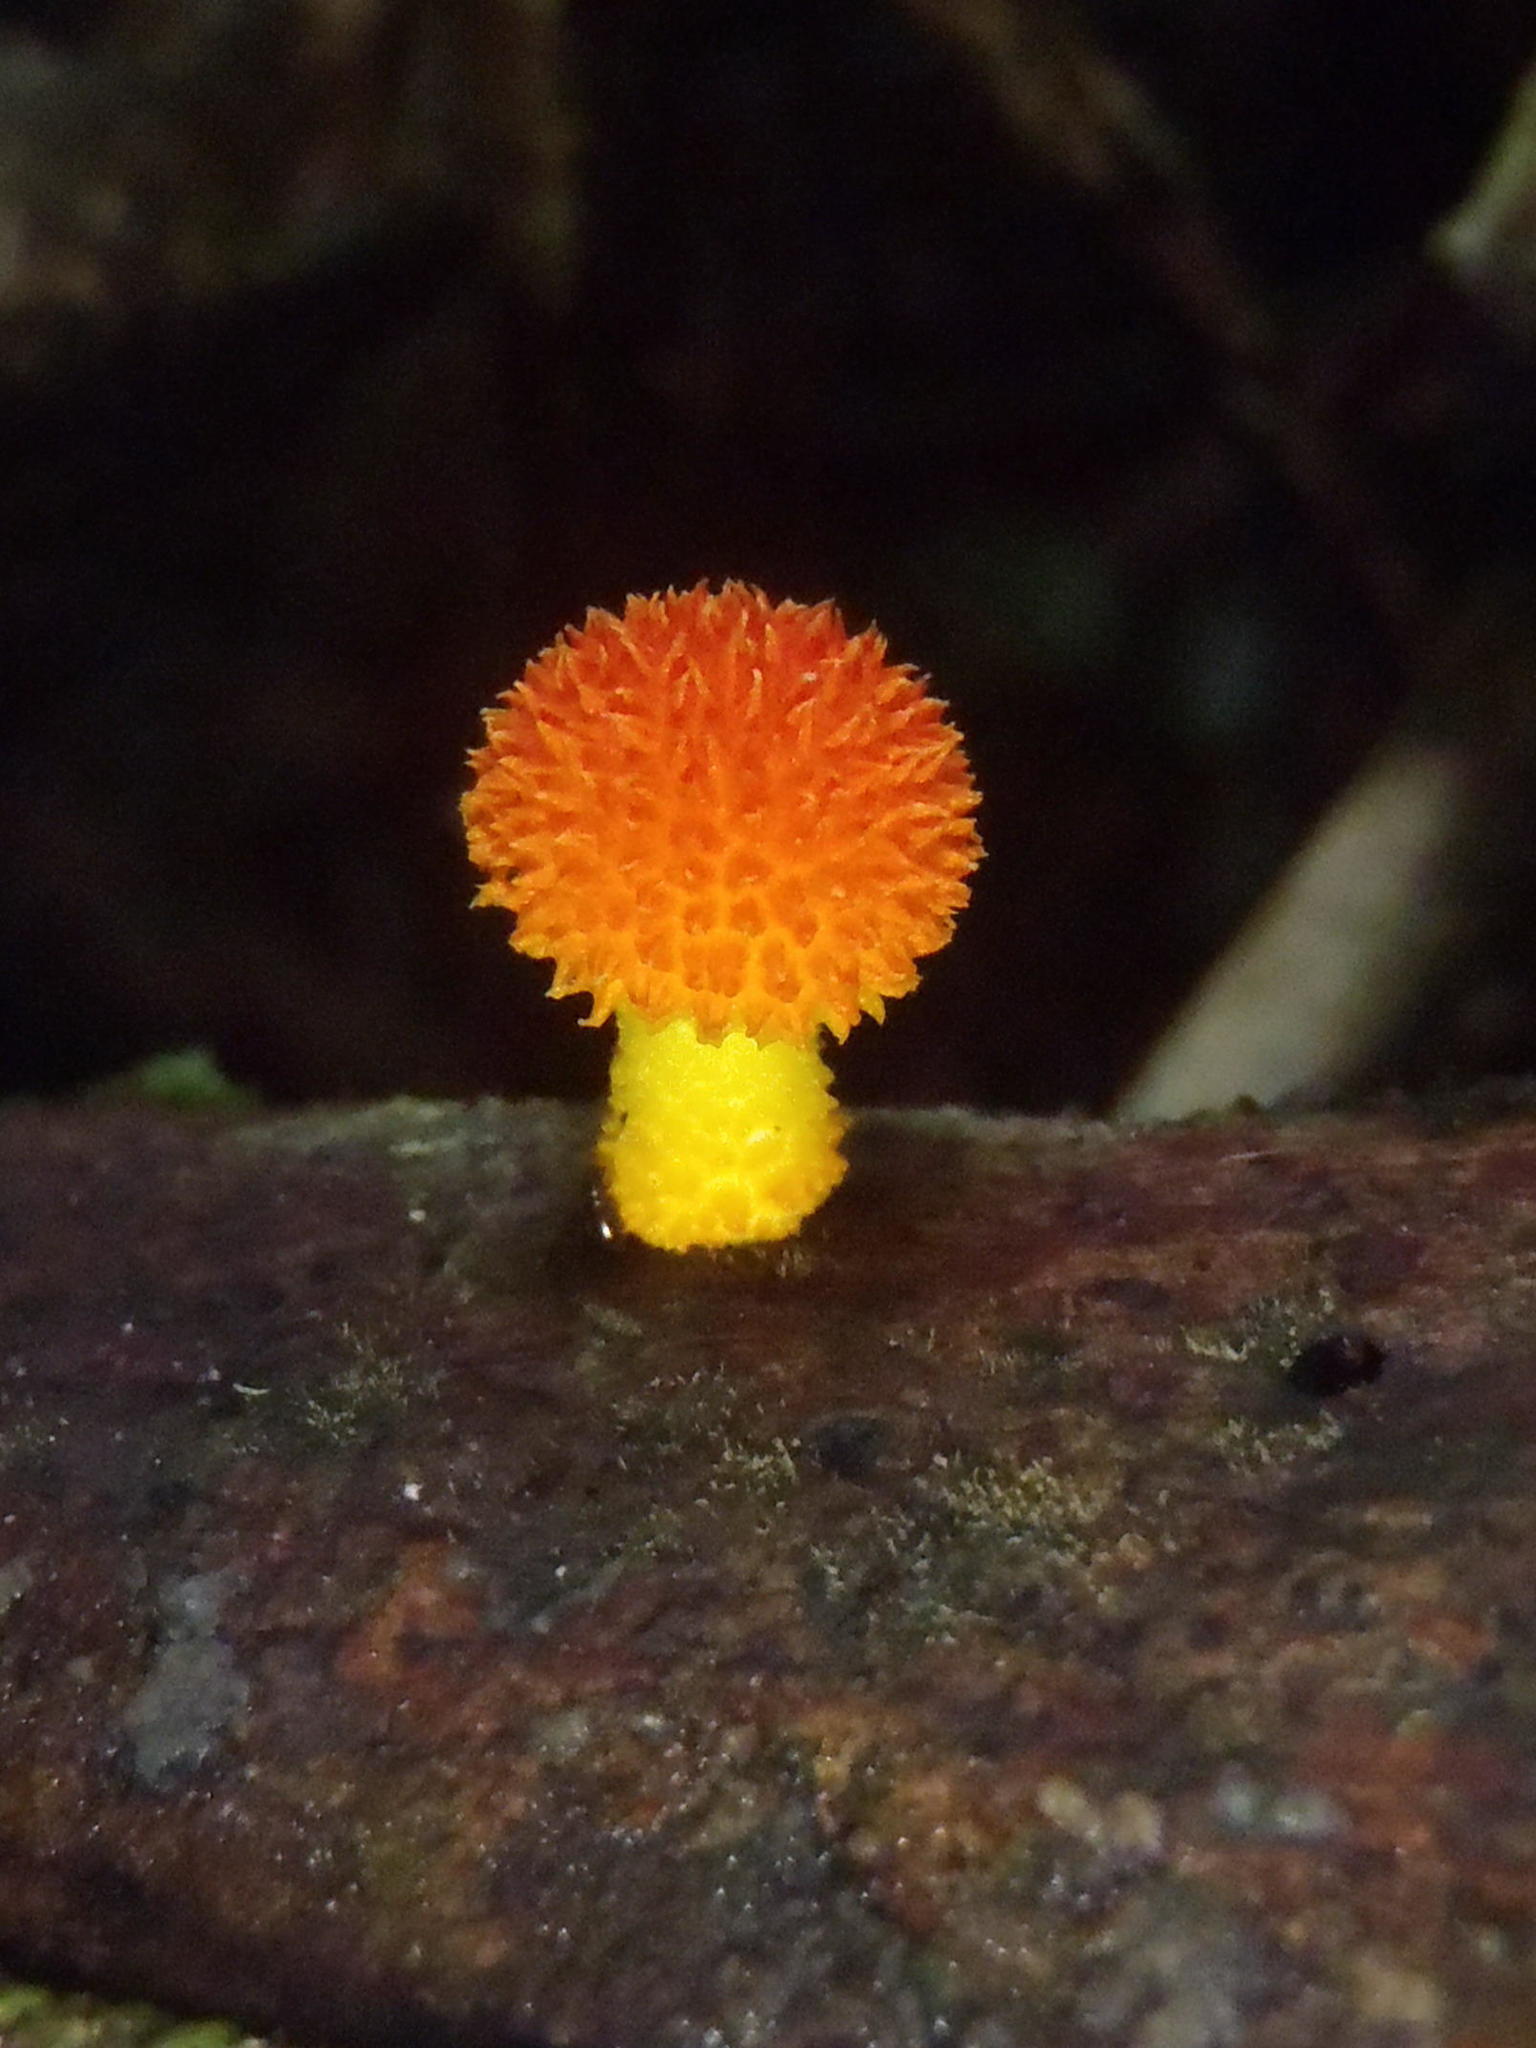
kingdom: Fungi
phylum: Basidiomycota
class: Agaricomycetes
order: Agaricales
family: Physalacriaceae
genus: Cyptotrama
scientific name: Cyptotrama asprata
